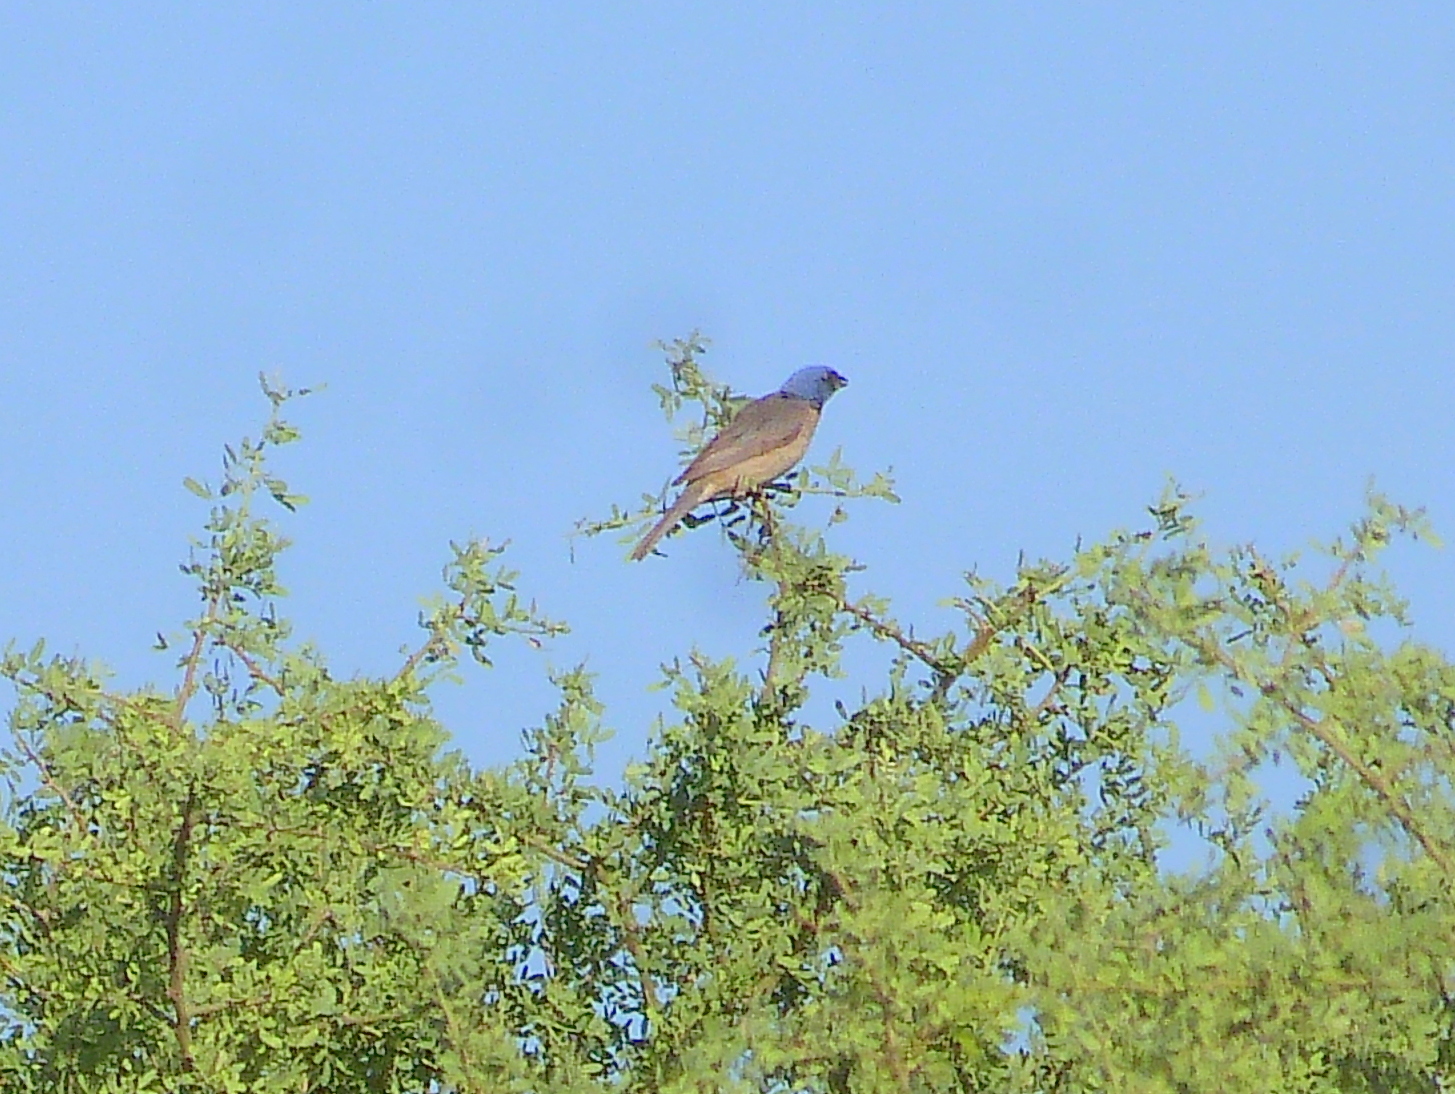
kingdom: Animalia
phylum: Chordata
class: Aves
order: Passeriformes
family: Thraupidae
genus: Rauenia
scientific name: Rauenia bonariensis
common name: Blue-and-yellow tanager
